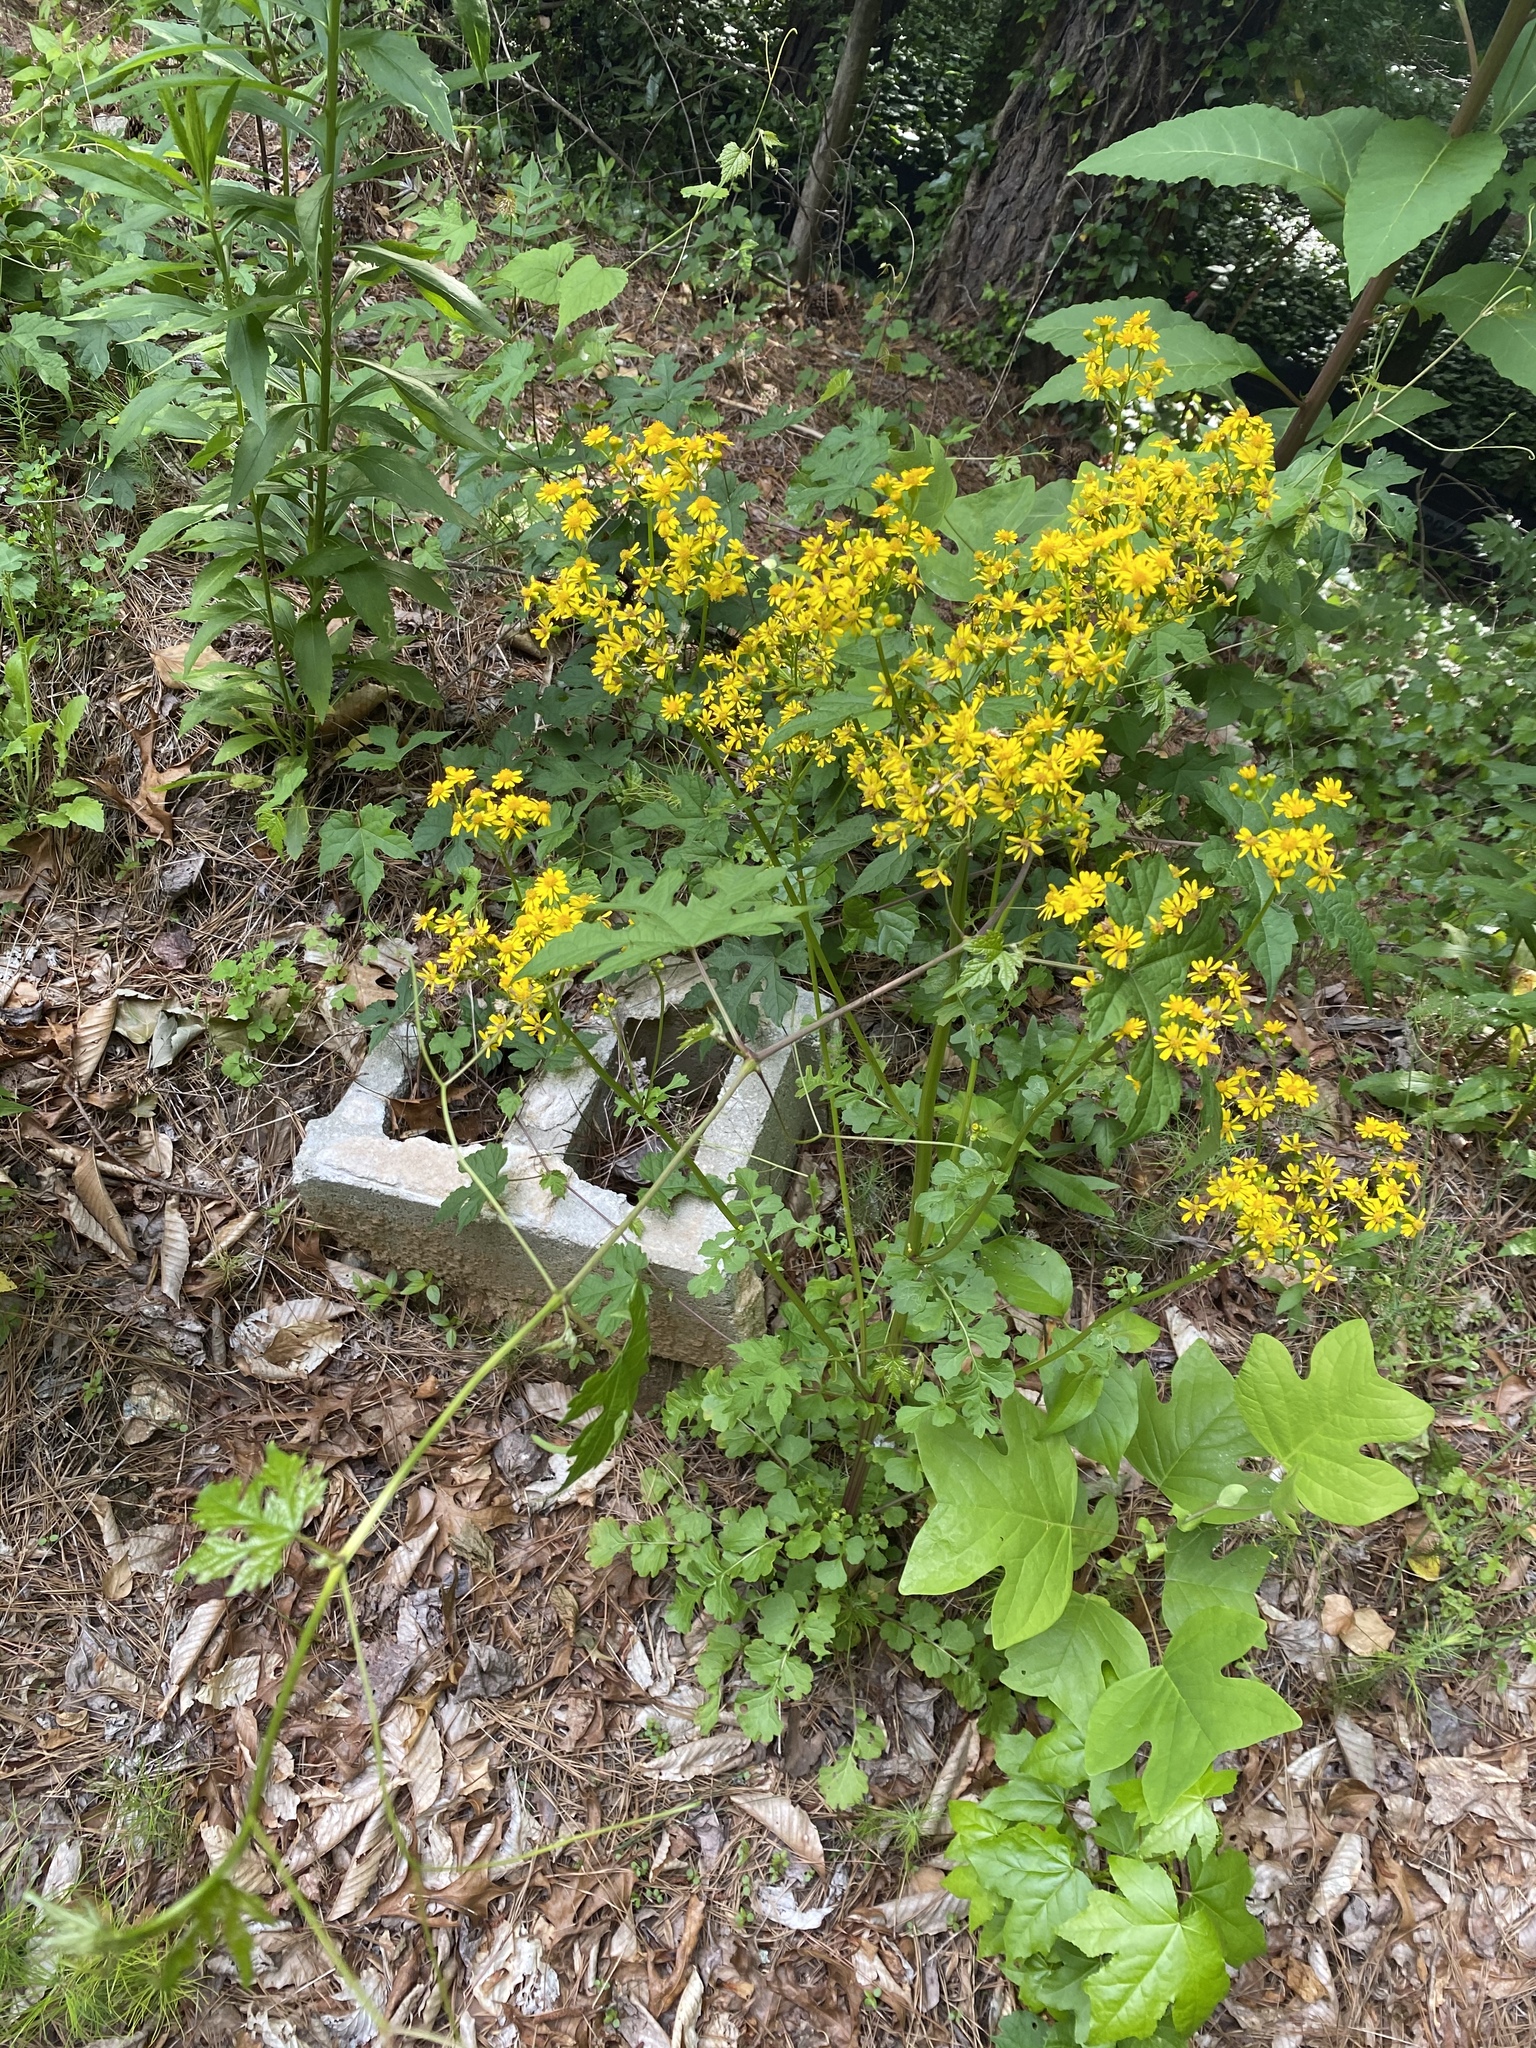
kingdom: Plantae
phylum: Tracheophyta
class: Magnoliopsida
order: Asterales
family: Asteraceae
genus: Packera
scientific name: Packera glabella
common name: Butterweed
